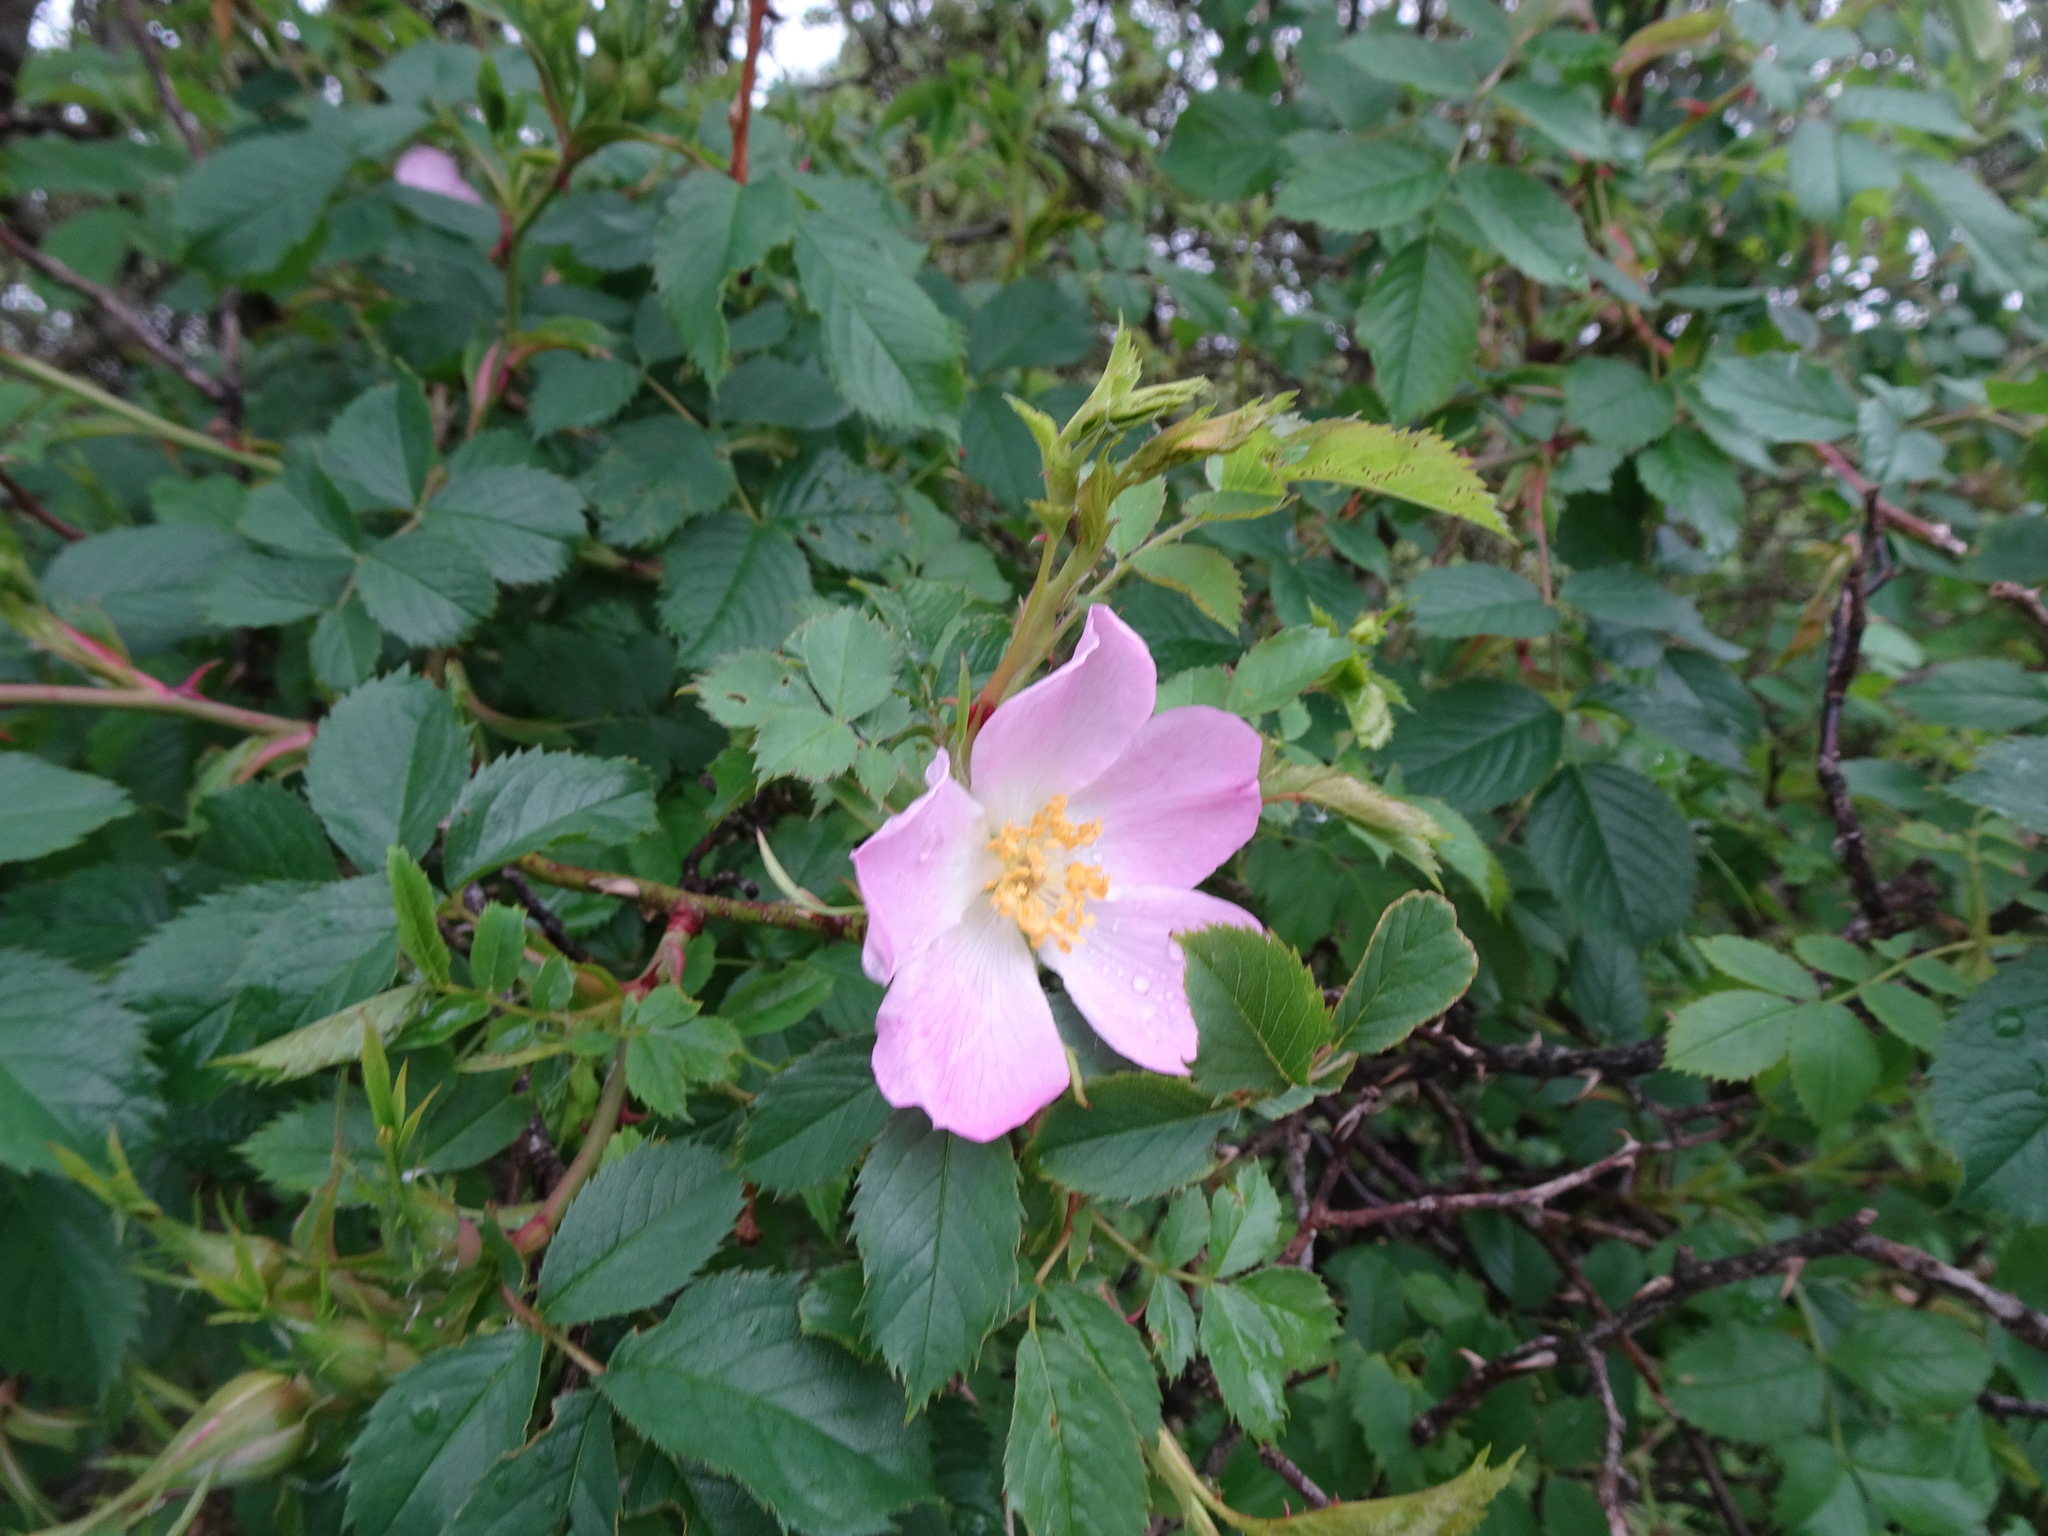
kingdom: Plantae
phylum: Tracheophyta
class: Magnoliopsida
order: Rosales
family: Rosaceae
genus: Rosa
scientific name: Rosa canina
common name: Dog rose
